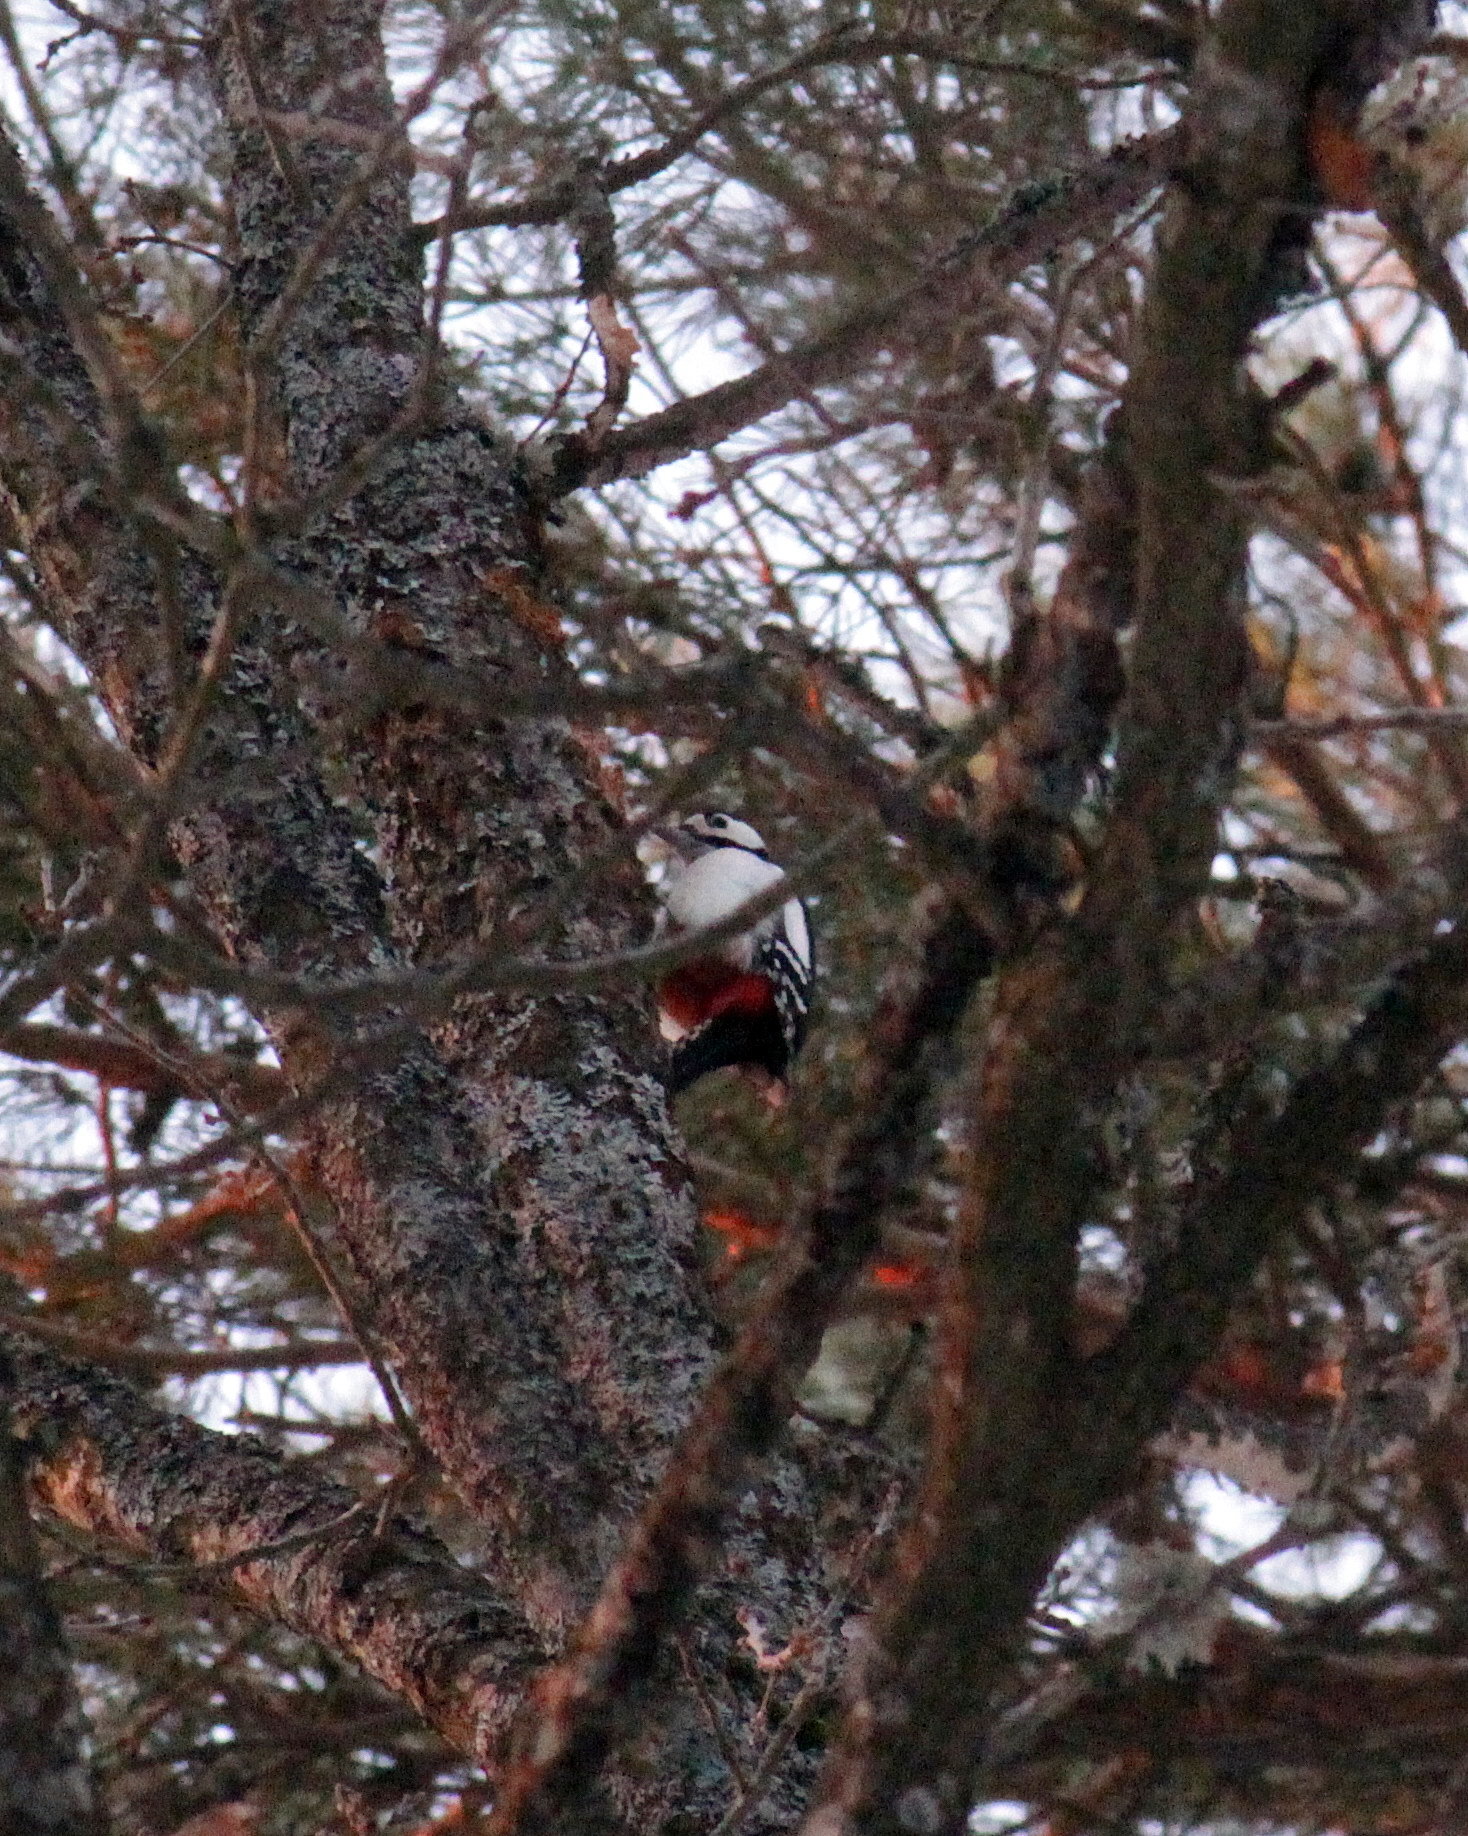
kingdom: Animalia
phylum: Chordata
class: Aves
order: Piciformes
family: Picidae
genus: Dendrocopos
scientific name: Dendrocopos major
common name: Great spotted woodpecker
